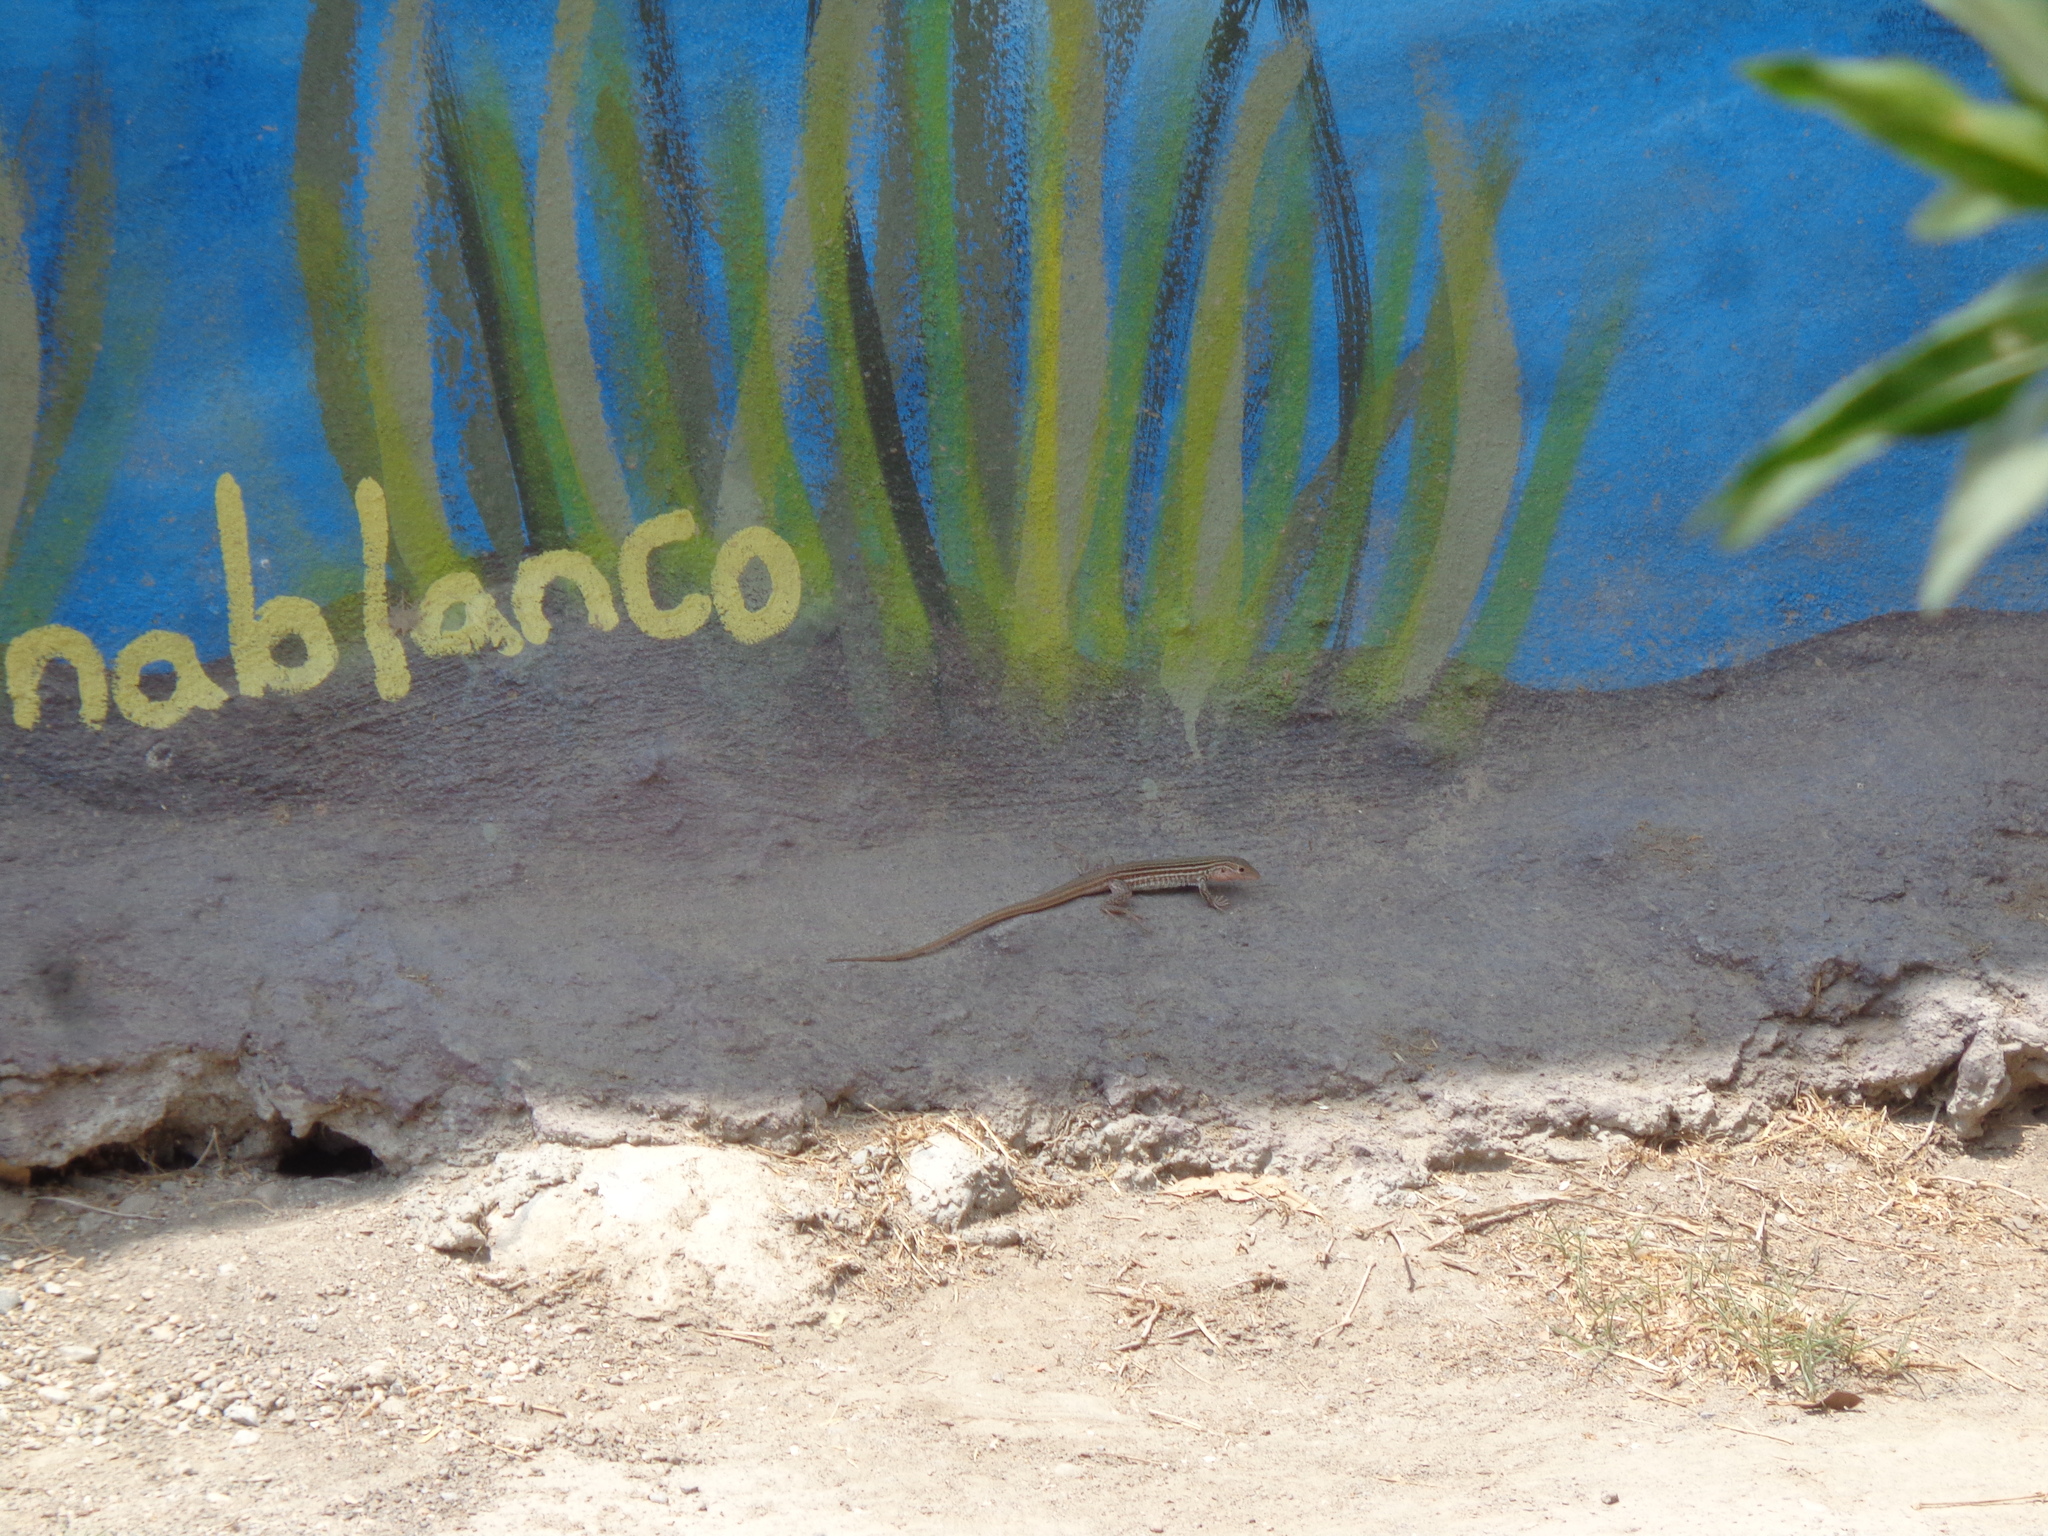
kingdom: Animalia
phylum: Chordata
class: Squamata
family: Teiidae
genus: Aspidoscelis
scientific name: Aspidoscelis gularis
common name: Eastern spotted whiptail
